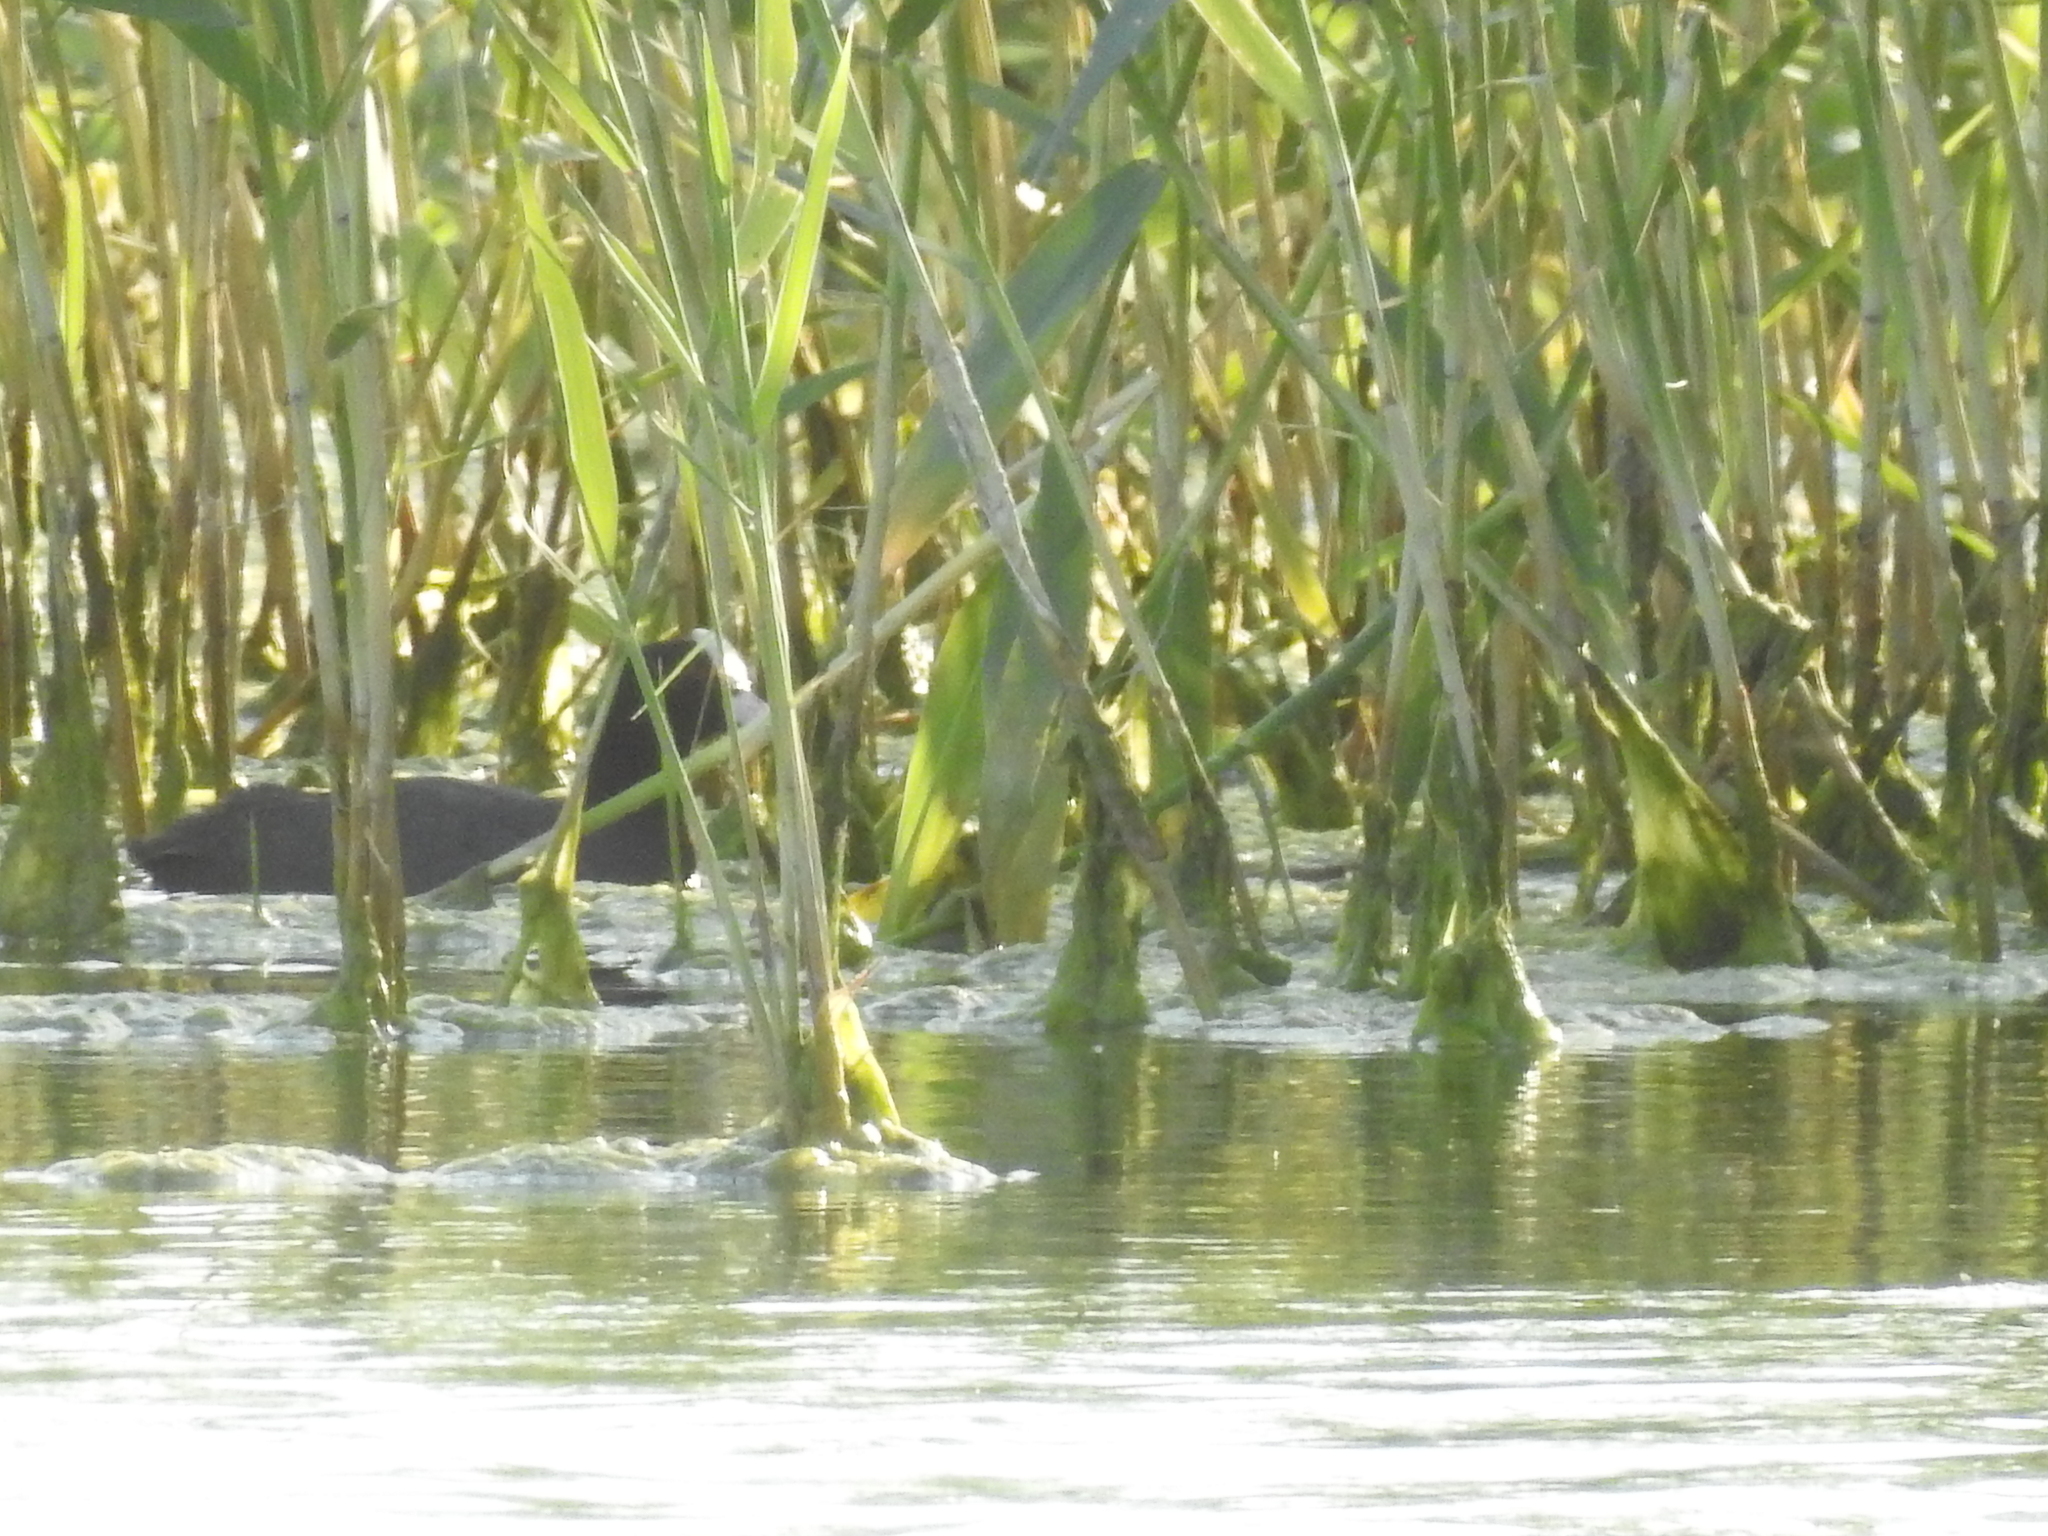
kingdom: Animalia
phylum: Chordata
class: Aves
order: Gruiformes
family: Rallidae
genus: Fulica
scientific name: Fulica atra
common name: Eurasian coot
